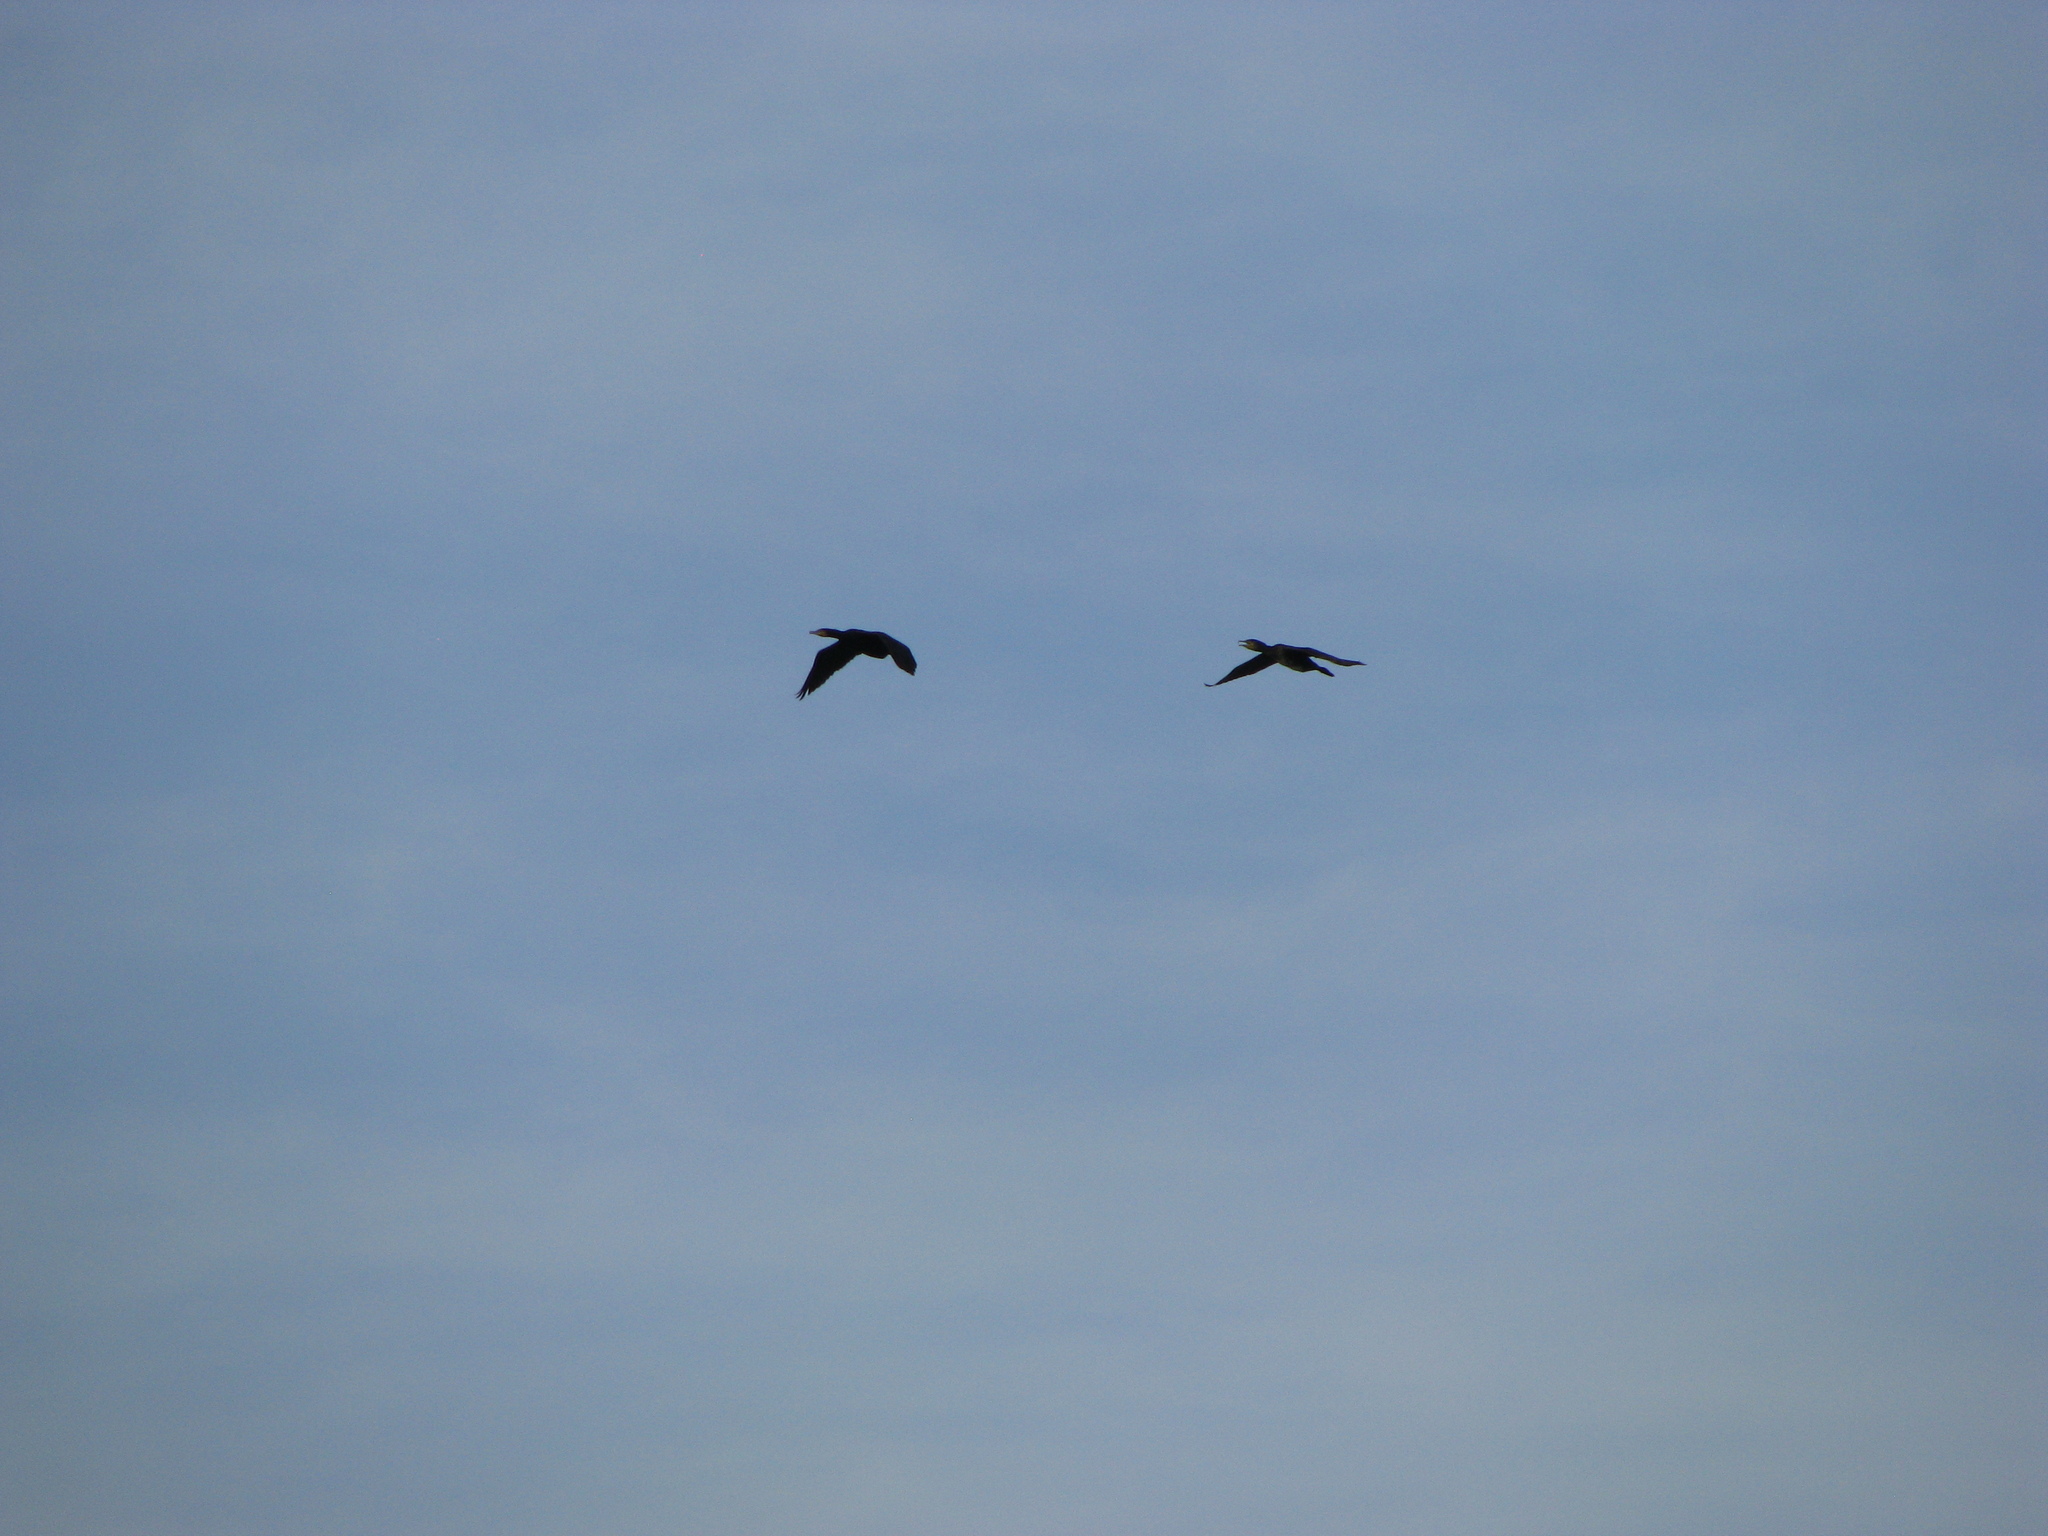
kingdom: Animalia
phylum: Chordata
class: Aves
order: Suliformes
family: Phalacrocoracidae
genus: Phalacrocorax
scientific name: Phalacrocorax carbo
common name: Great cormorant
